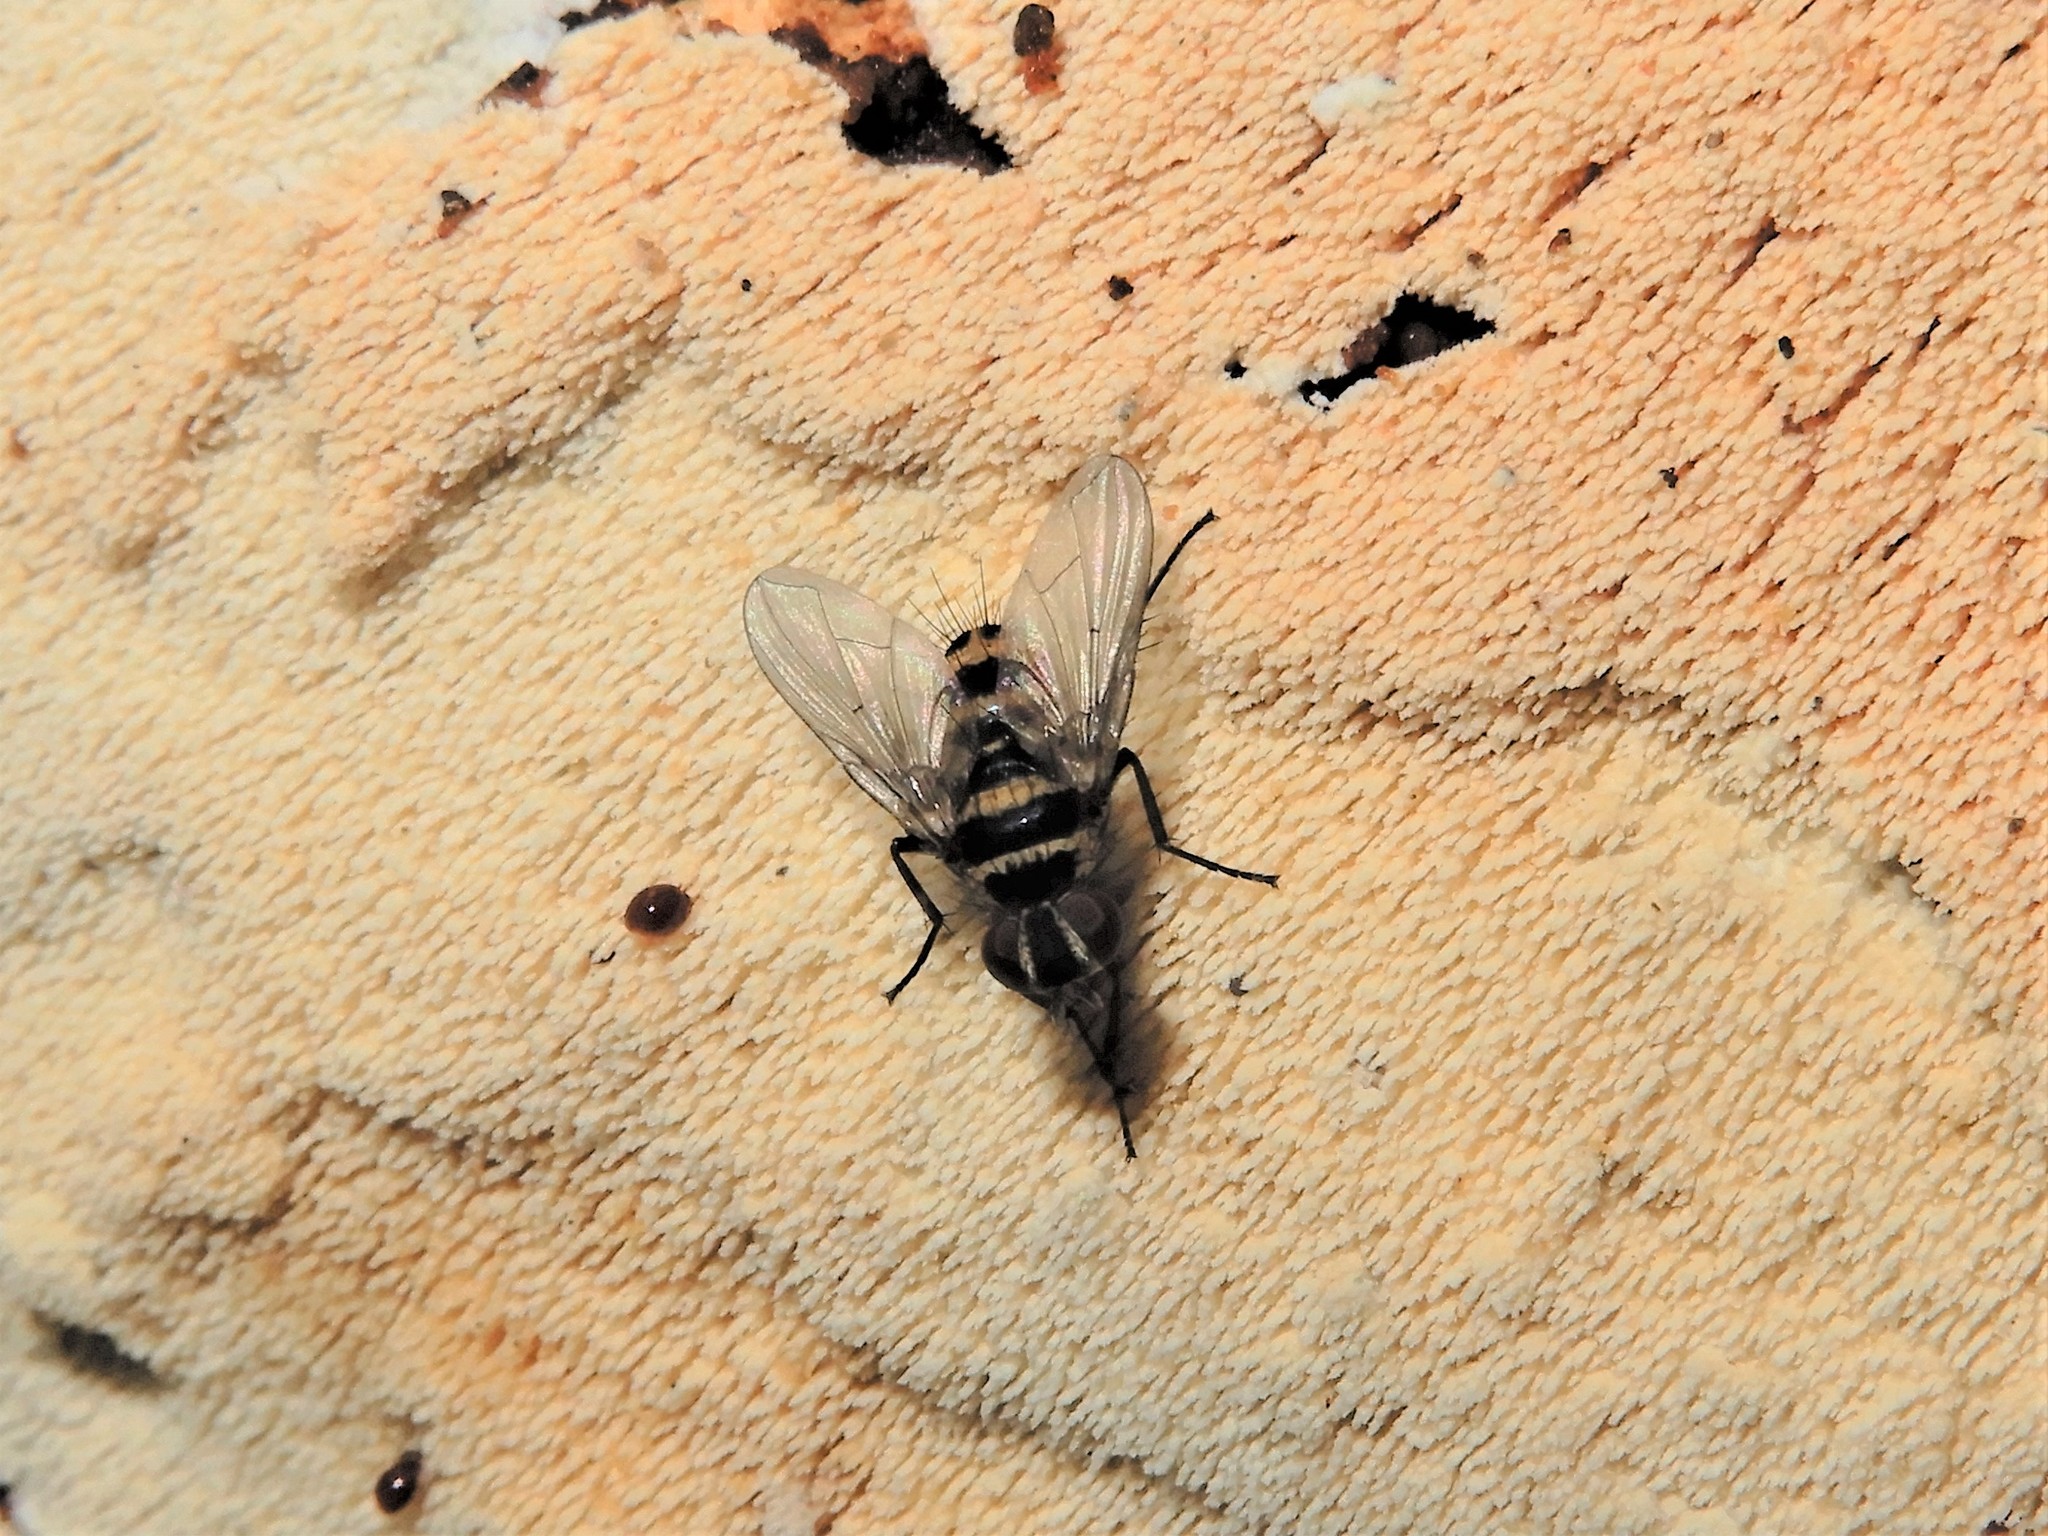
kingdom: Animalia
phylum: Arthropoda
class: Insecta
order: Diptera
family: Tachinidae
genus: Trigonospila
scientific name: Trigonospila brevifacies
